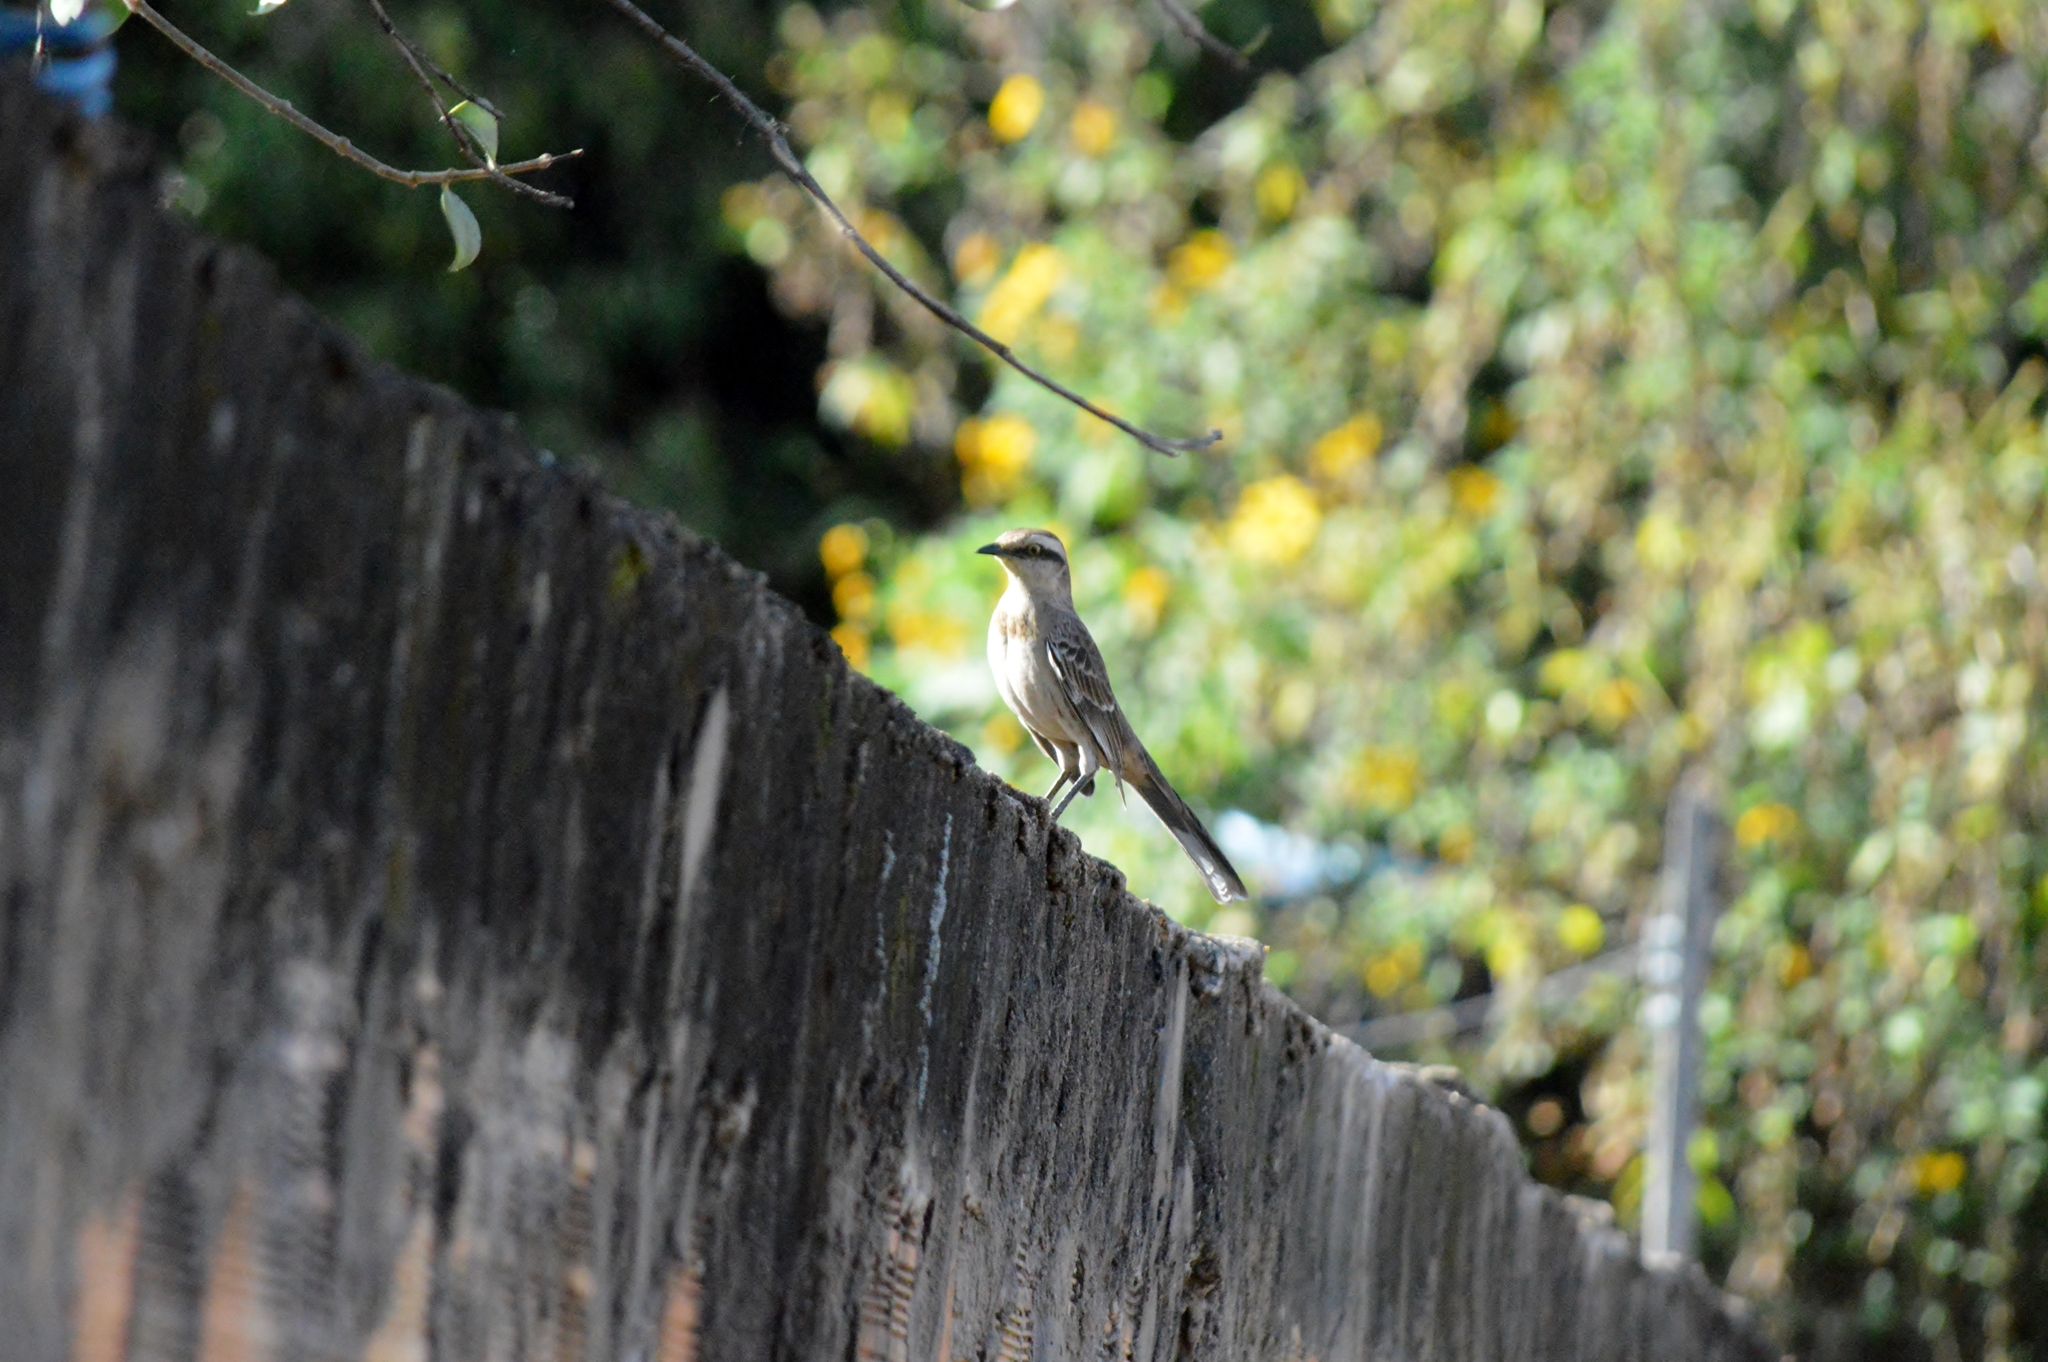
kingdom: Animalia
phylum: Chordata
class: Aves
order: Passeriformes
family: Mimidae
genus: Mimus
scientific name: Mimus saturninus
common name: Chalk-browed mockingbird
